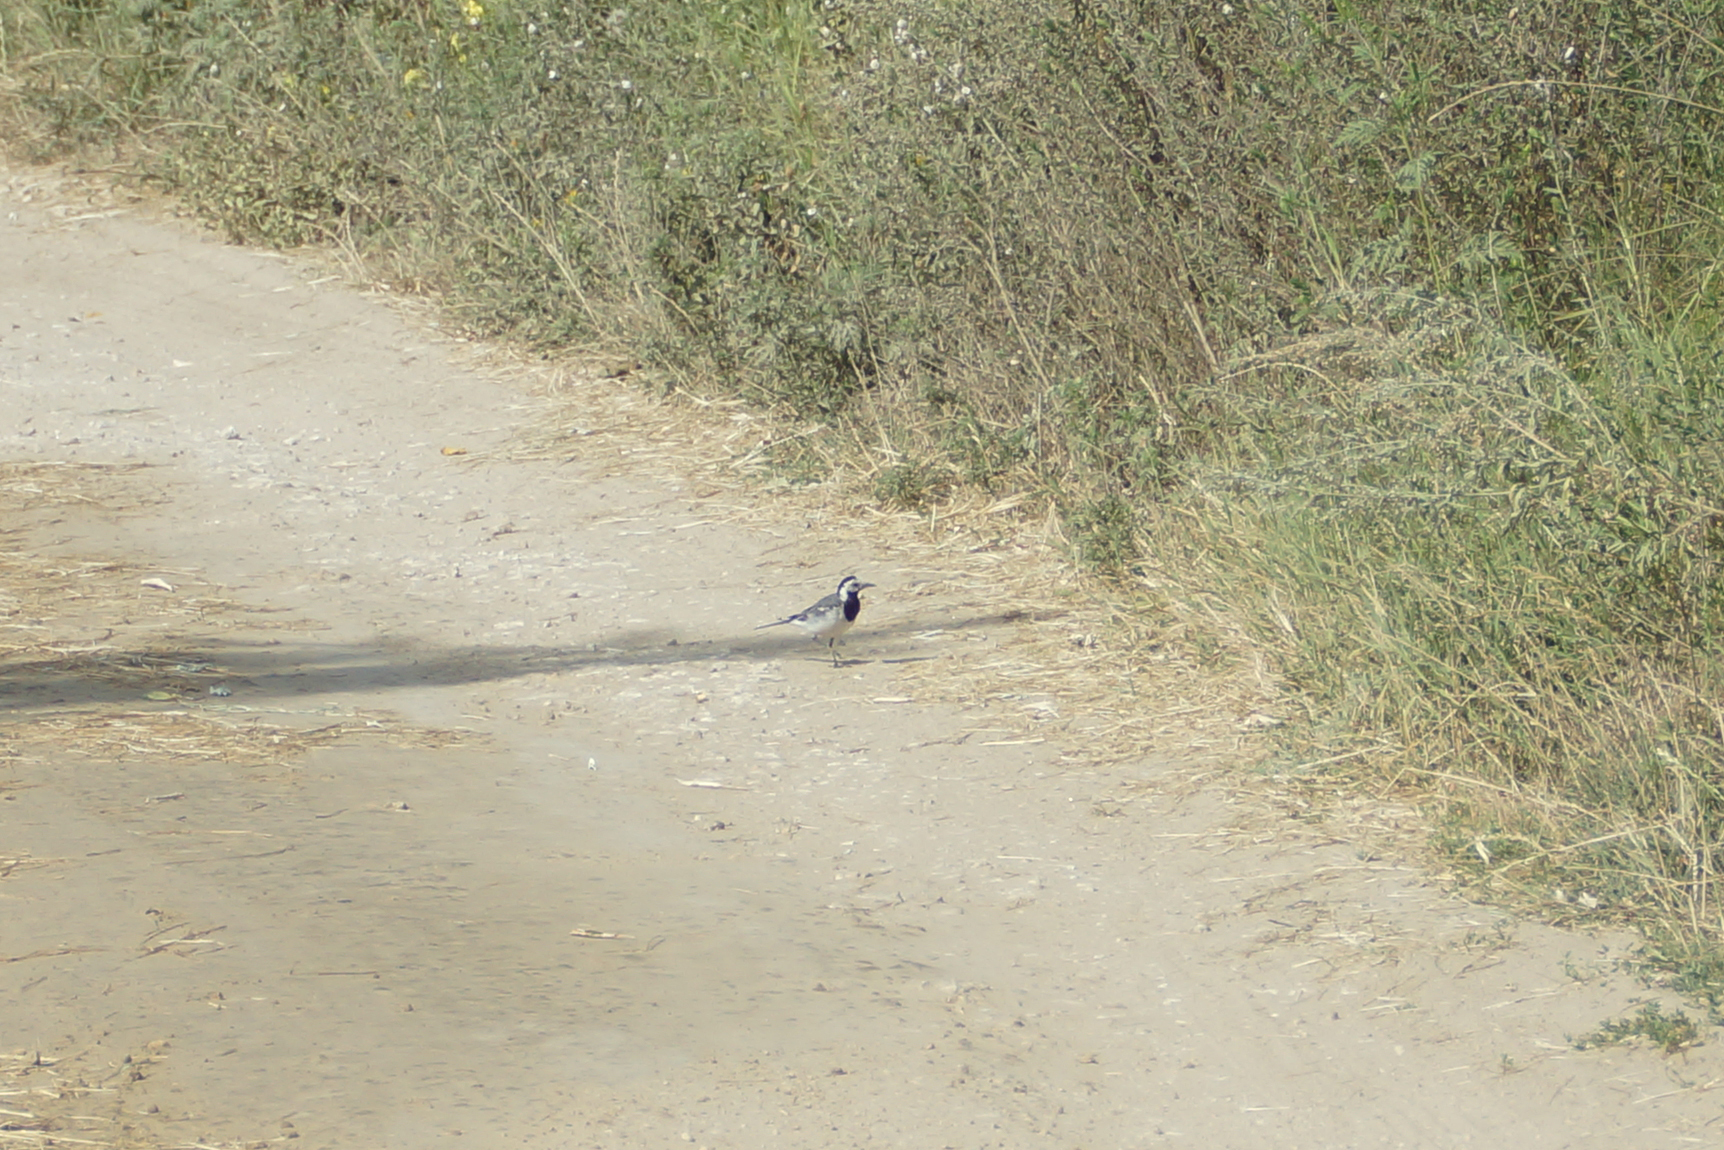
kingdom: Animalia
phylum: Chordata
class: Aves
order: Passeriformes
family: Motacillidae
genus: Motacilla
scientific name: Motacilla alba
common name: White wagtail
